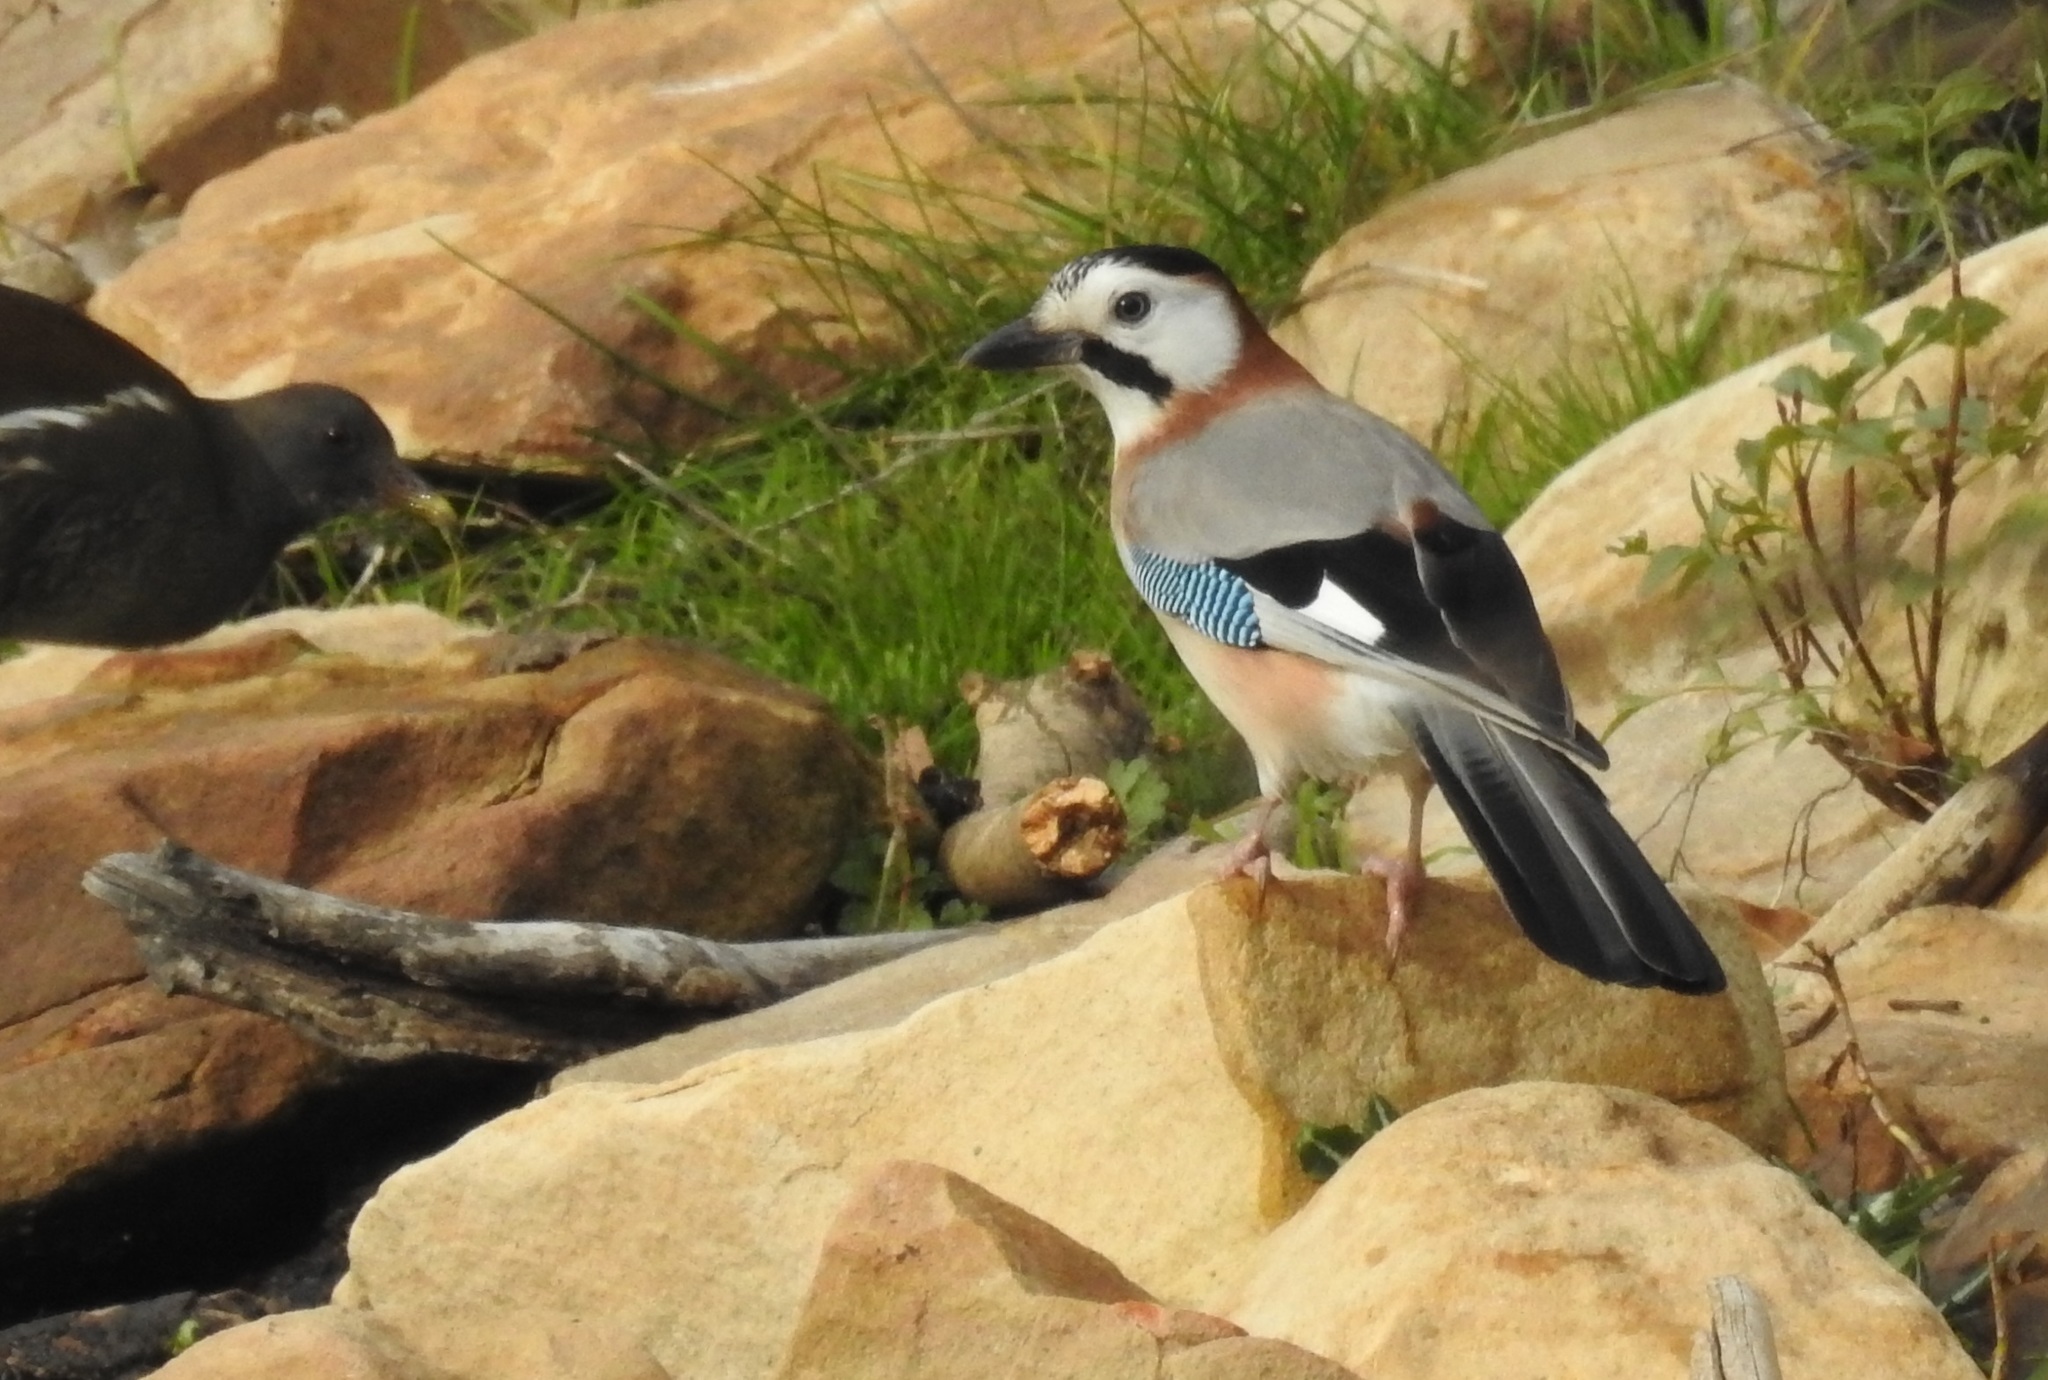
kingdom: Animalia
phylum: Chordata
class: Aves
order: Passeriformes
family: Corvidae
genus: Garrulus
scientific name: Garrulus glandarius
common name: Eurasian jay
